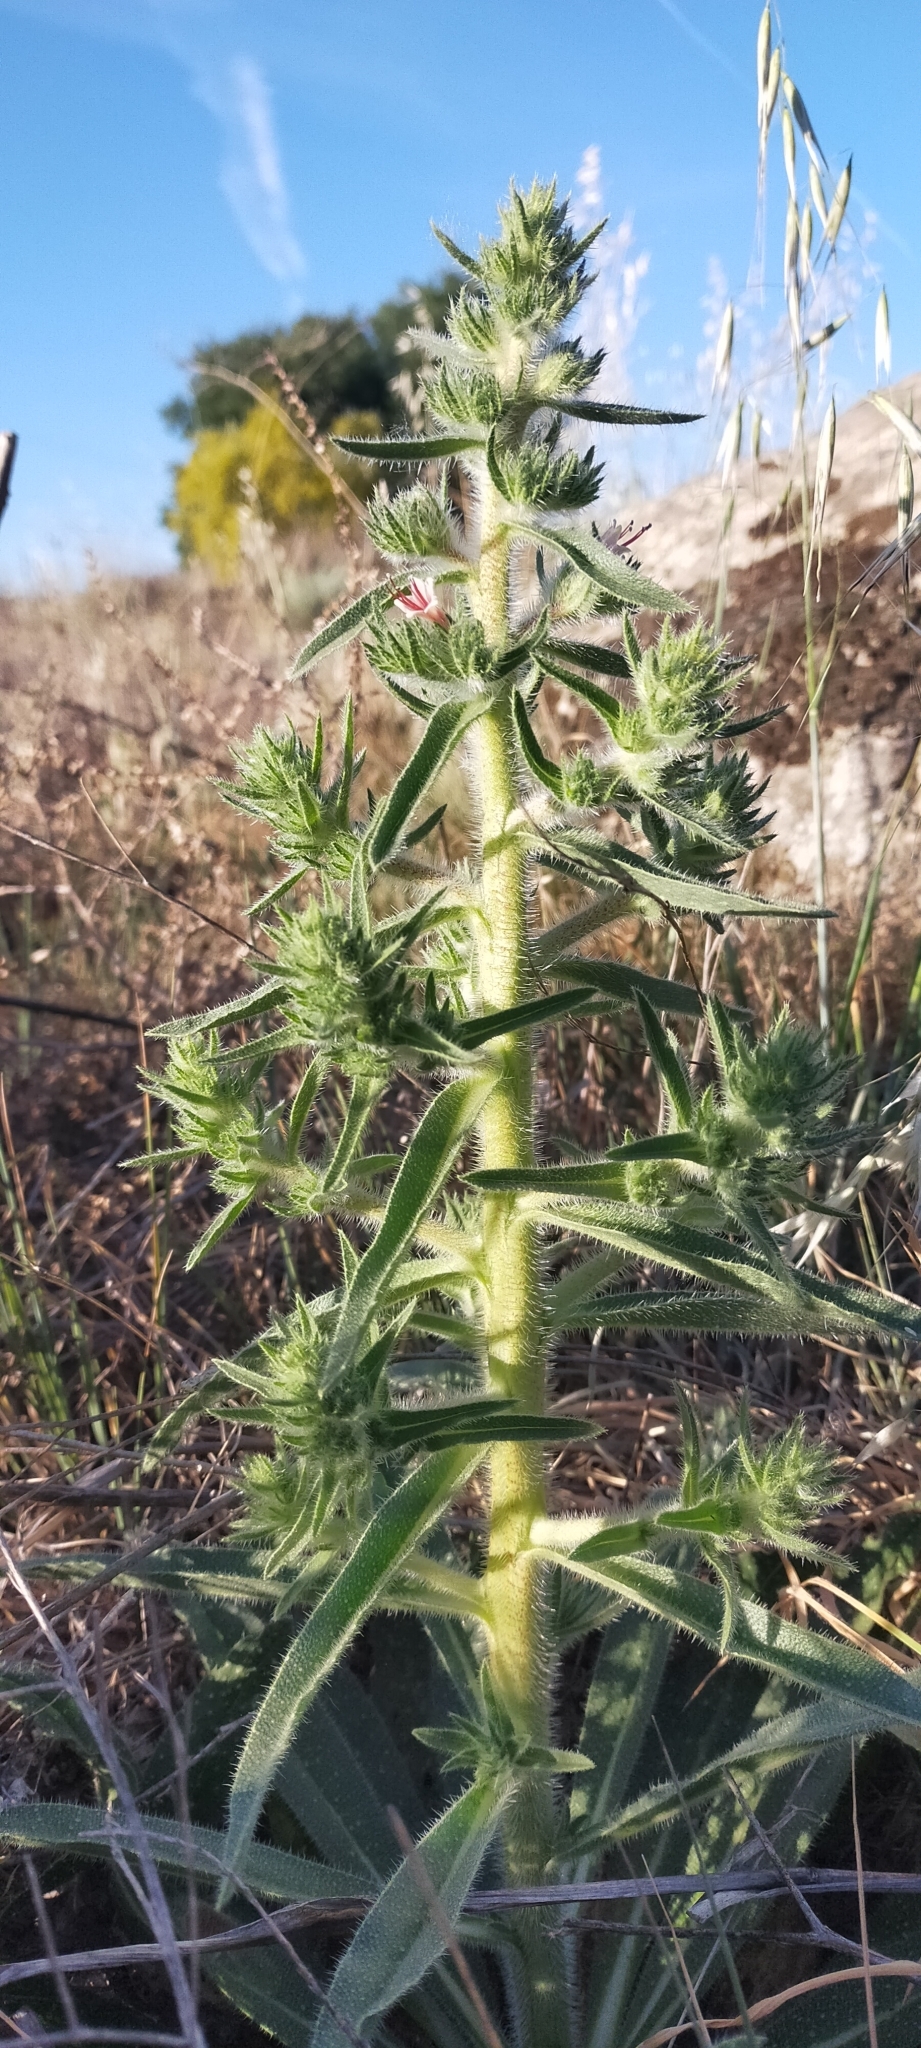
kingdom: Plantae
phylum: Tracheophyta
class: Magnoliopsida
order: Boraginales
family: Boraginaceae
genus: Echium
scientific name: Echium asperrimum
